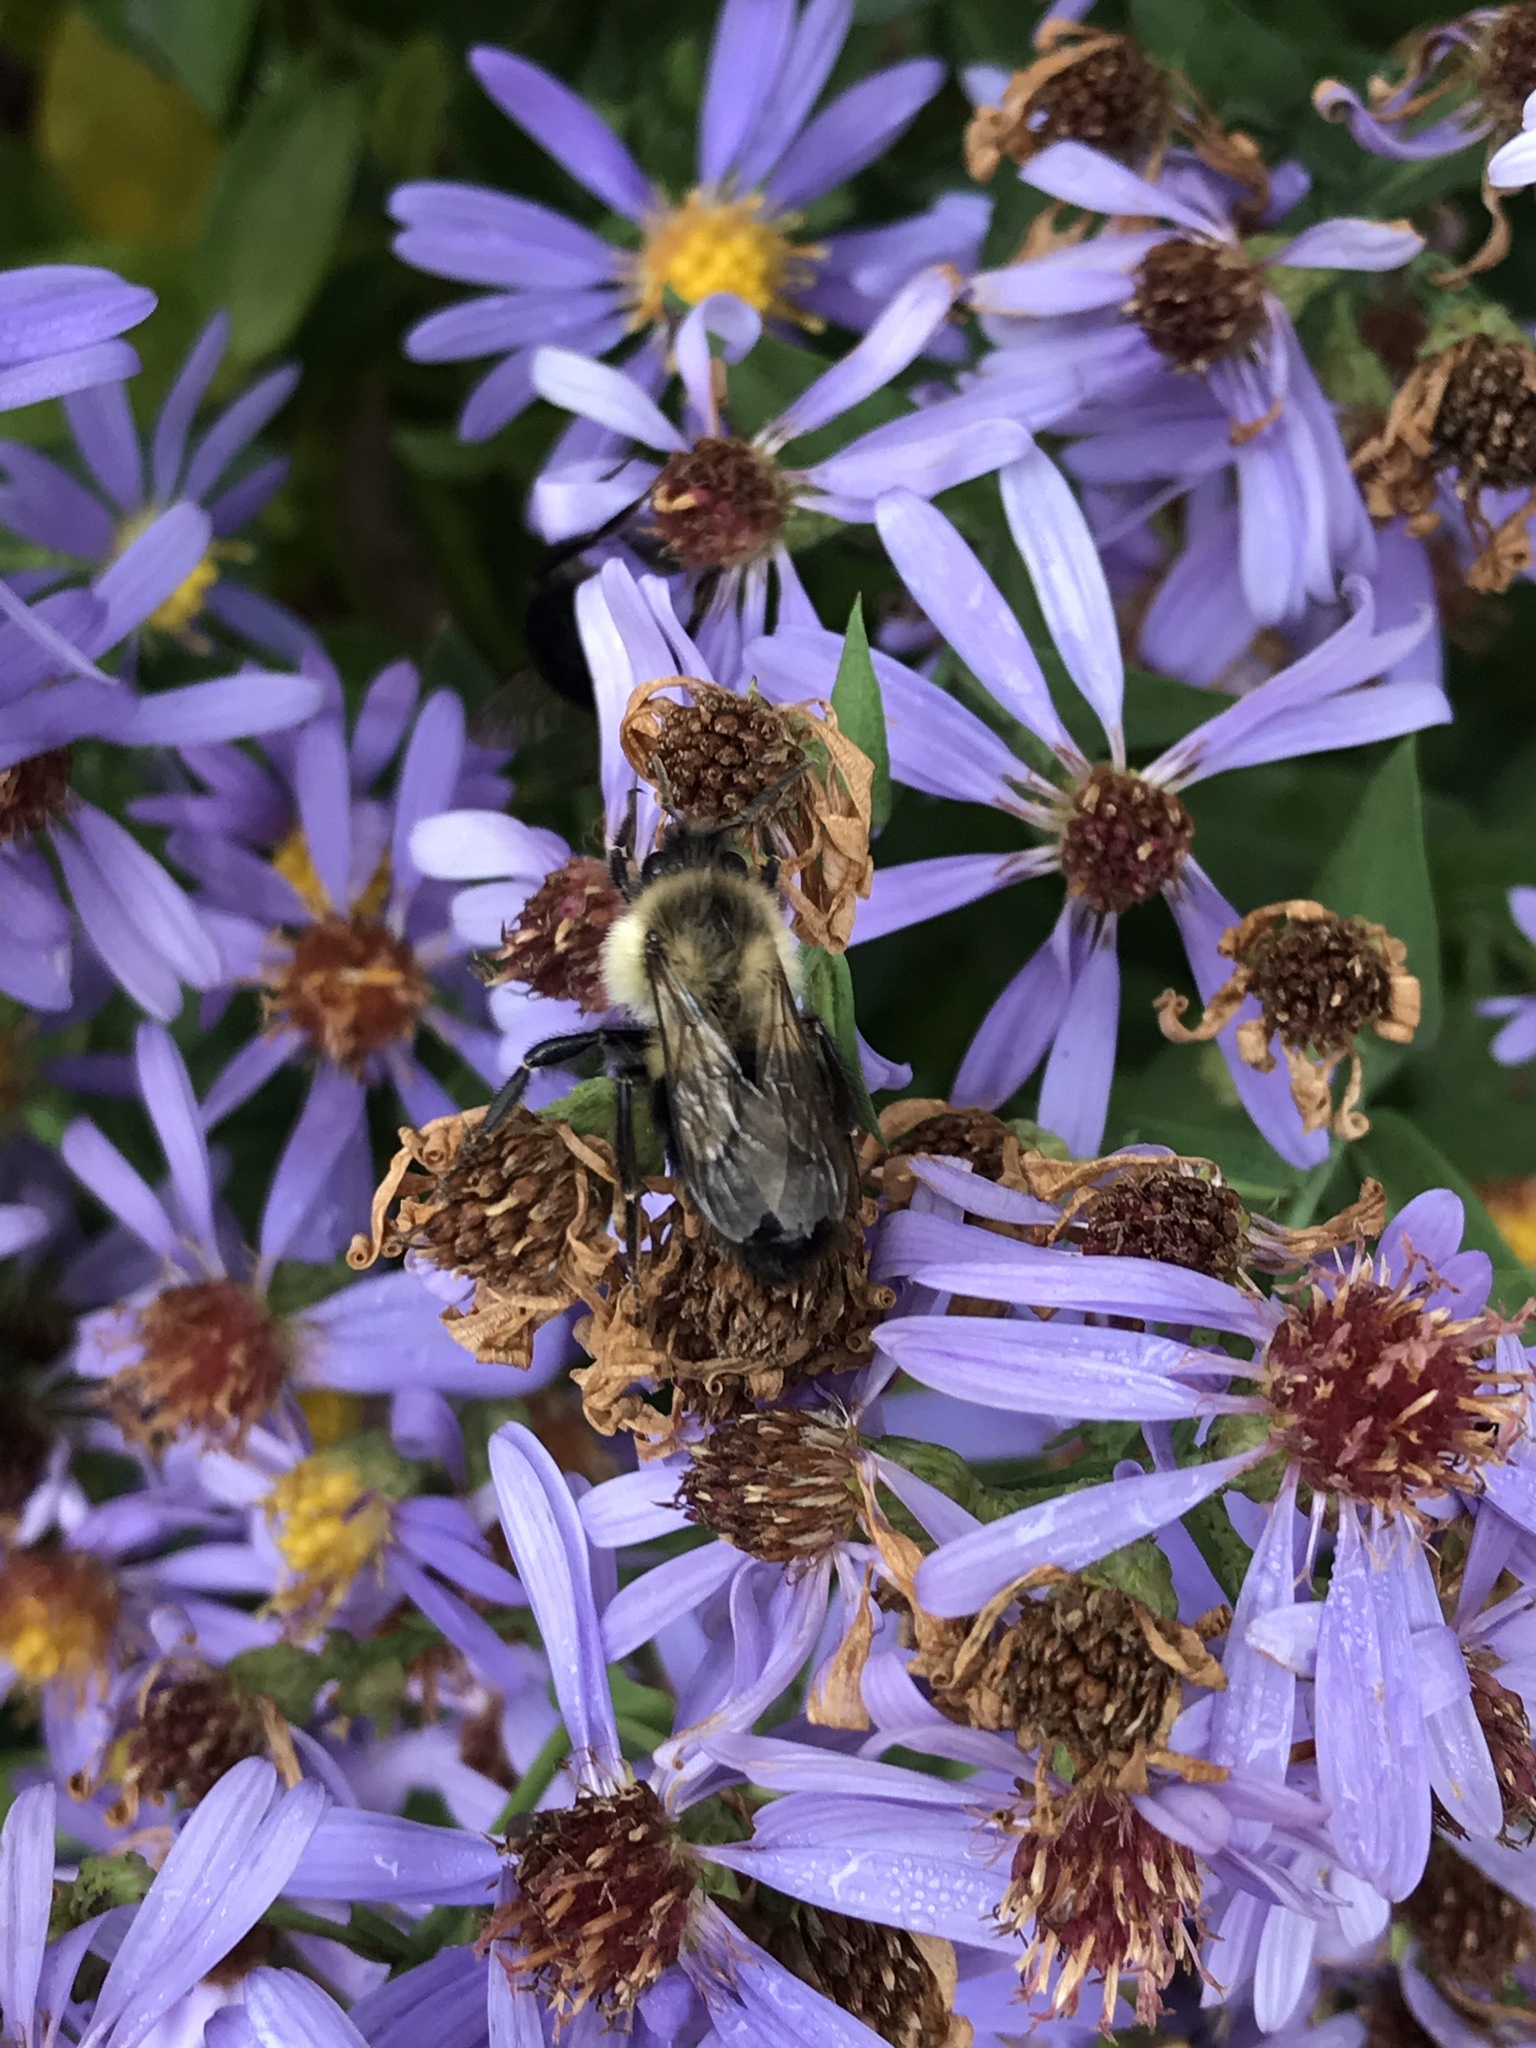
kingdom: Animalia
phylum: Arthropoda
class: Insecta
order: Hymenoptera
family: Apidae
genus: Bombus
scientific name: Bombus impatiens
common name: Common eastern bumble bee
